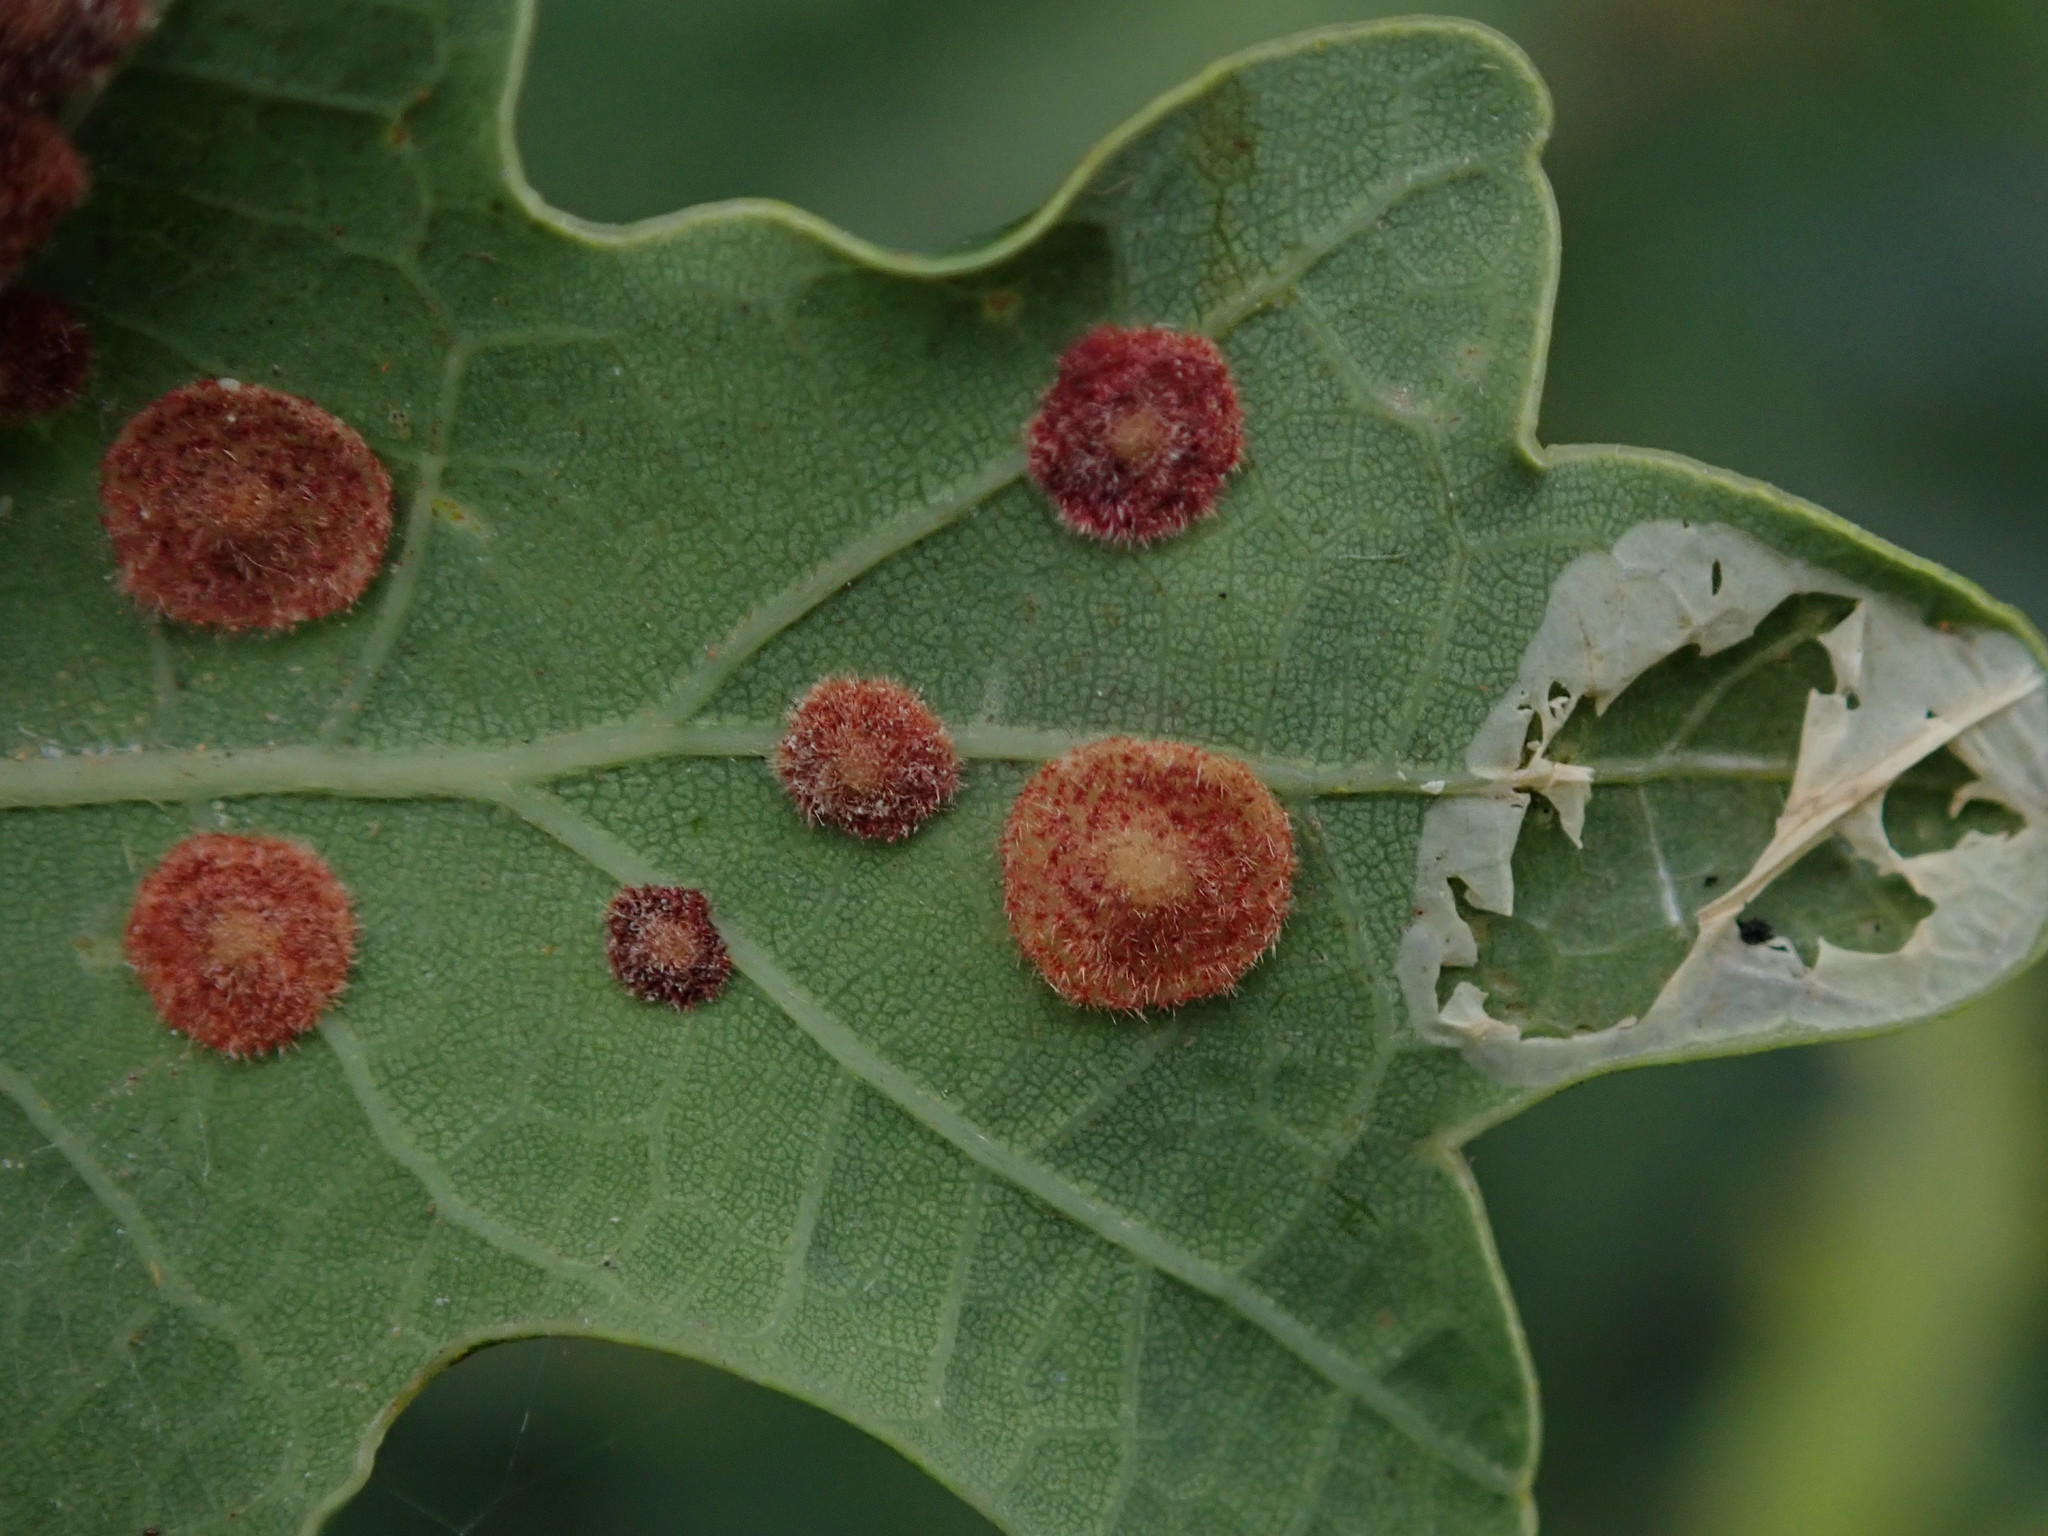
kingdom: Animalia
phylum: Arthropoda
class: Insecta
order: Hymenoptera
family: Cynipidae
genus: Neuroterus
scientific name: Neuroterus quercusbaccarum
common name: Common spangle gall
